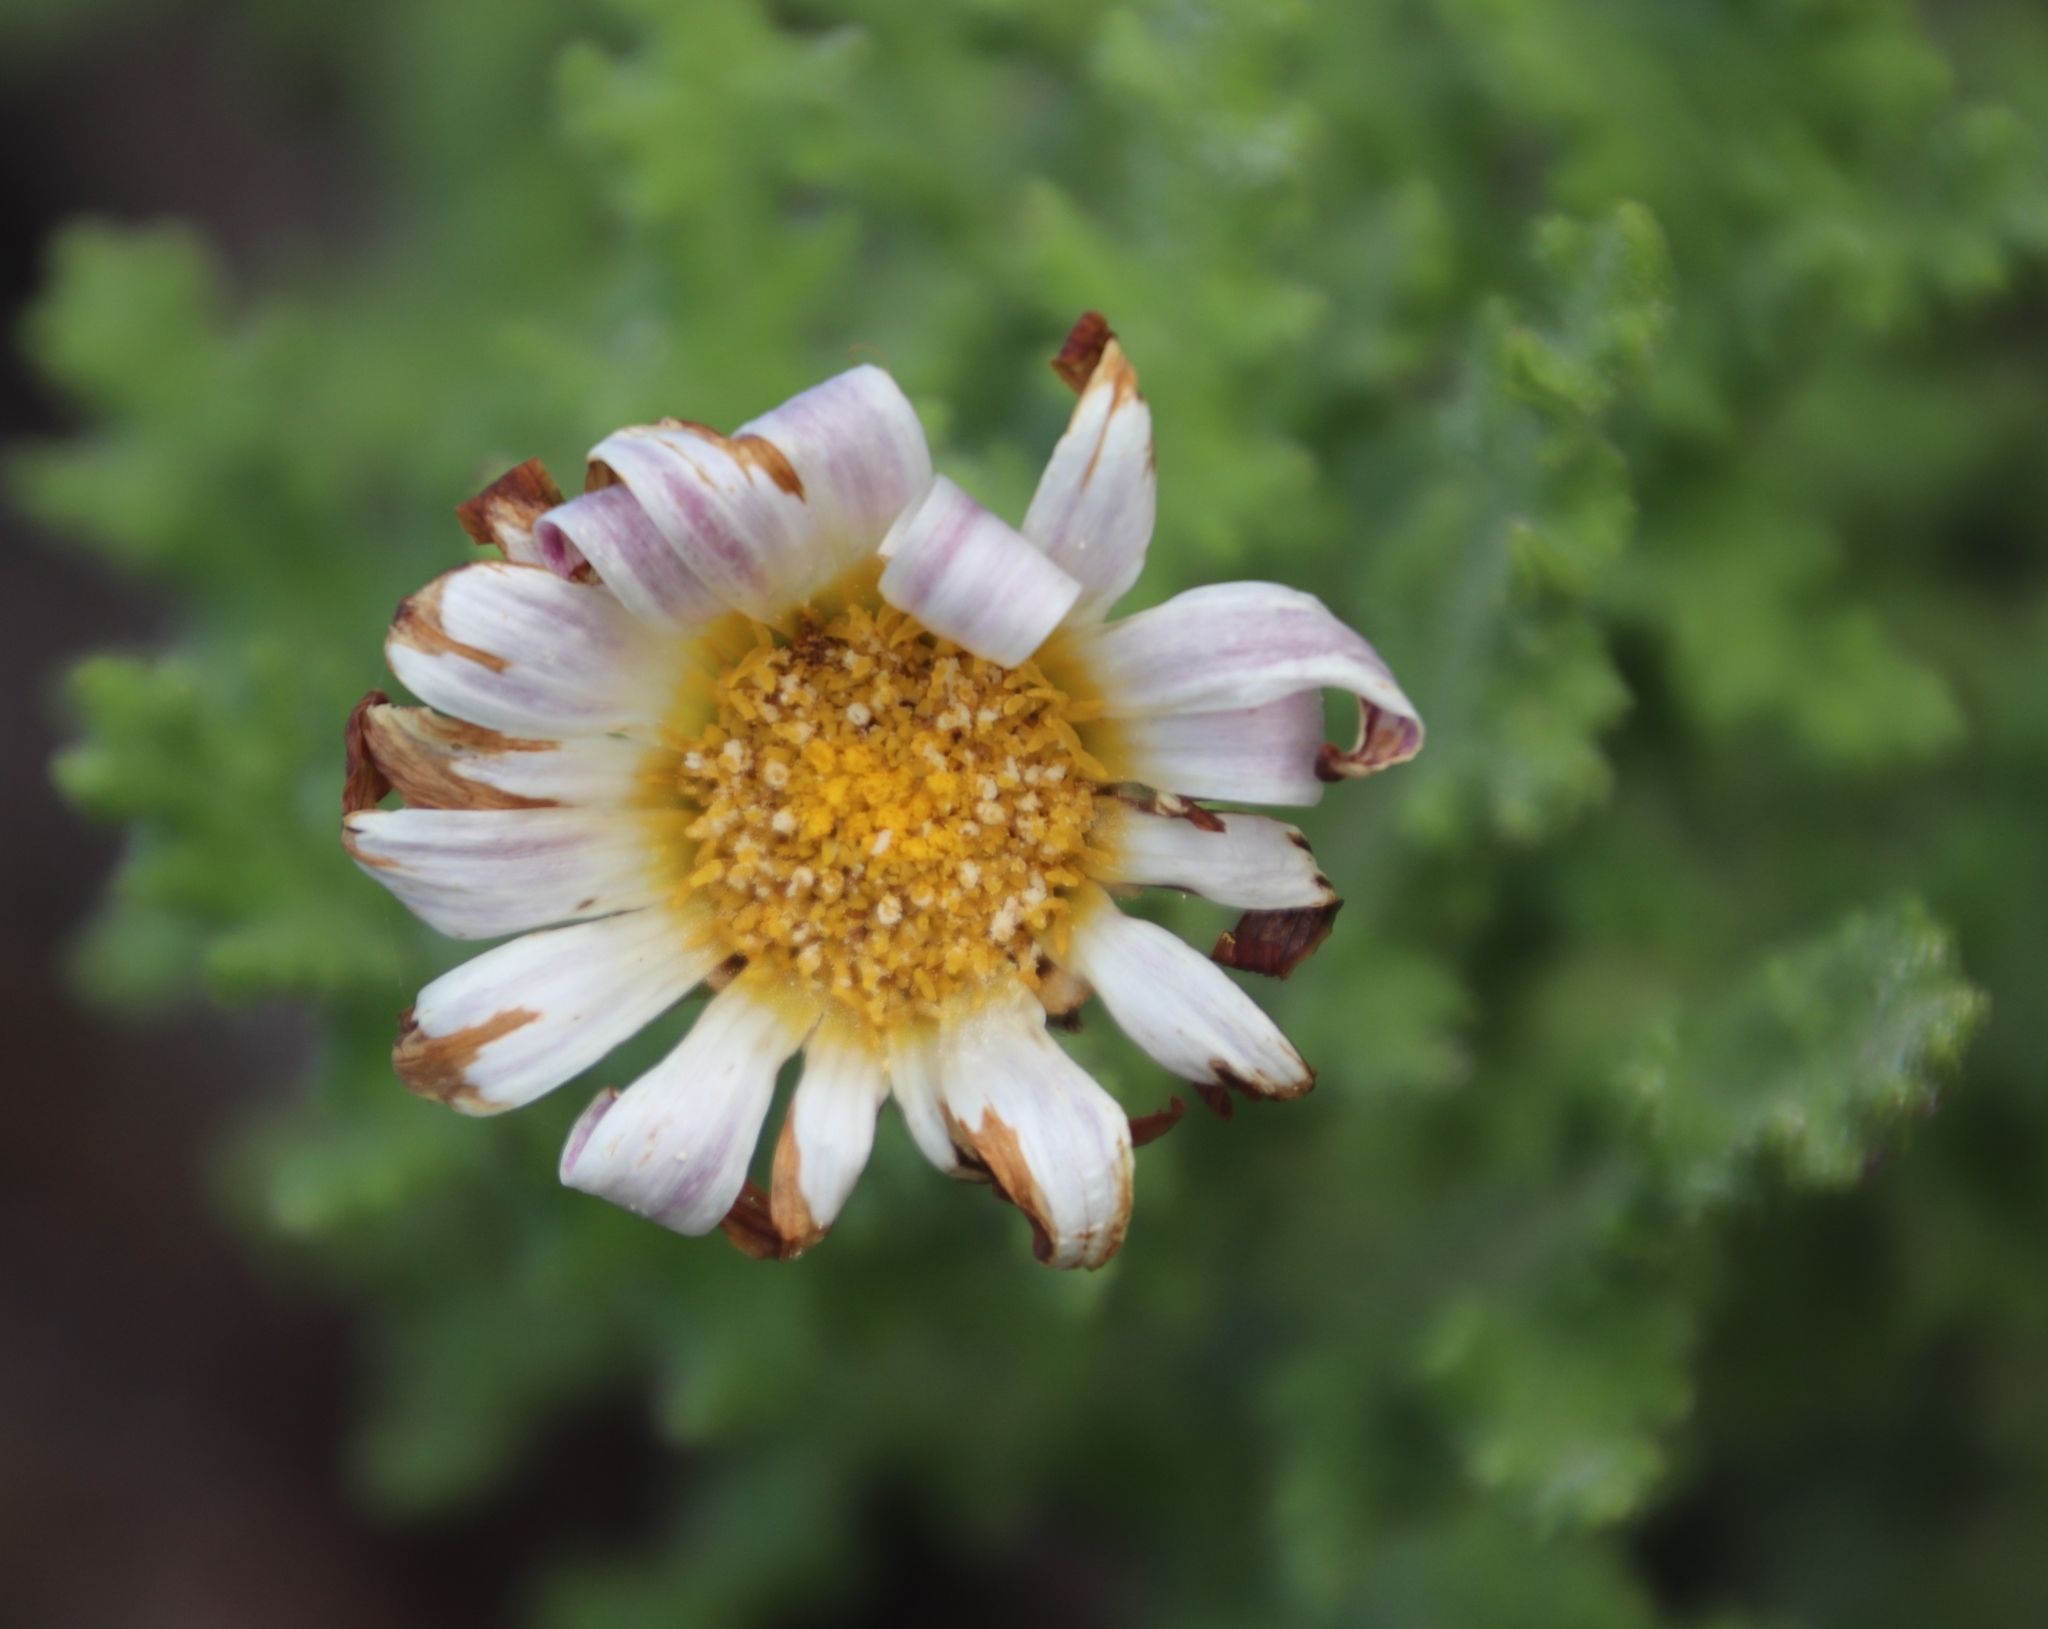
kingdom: Plantae
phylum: Tracheophyta
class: Magnoliopsida
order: Asterales
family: Asteraceae
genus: Arctotis
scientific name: Arctotis aspera
